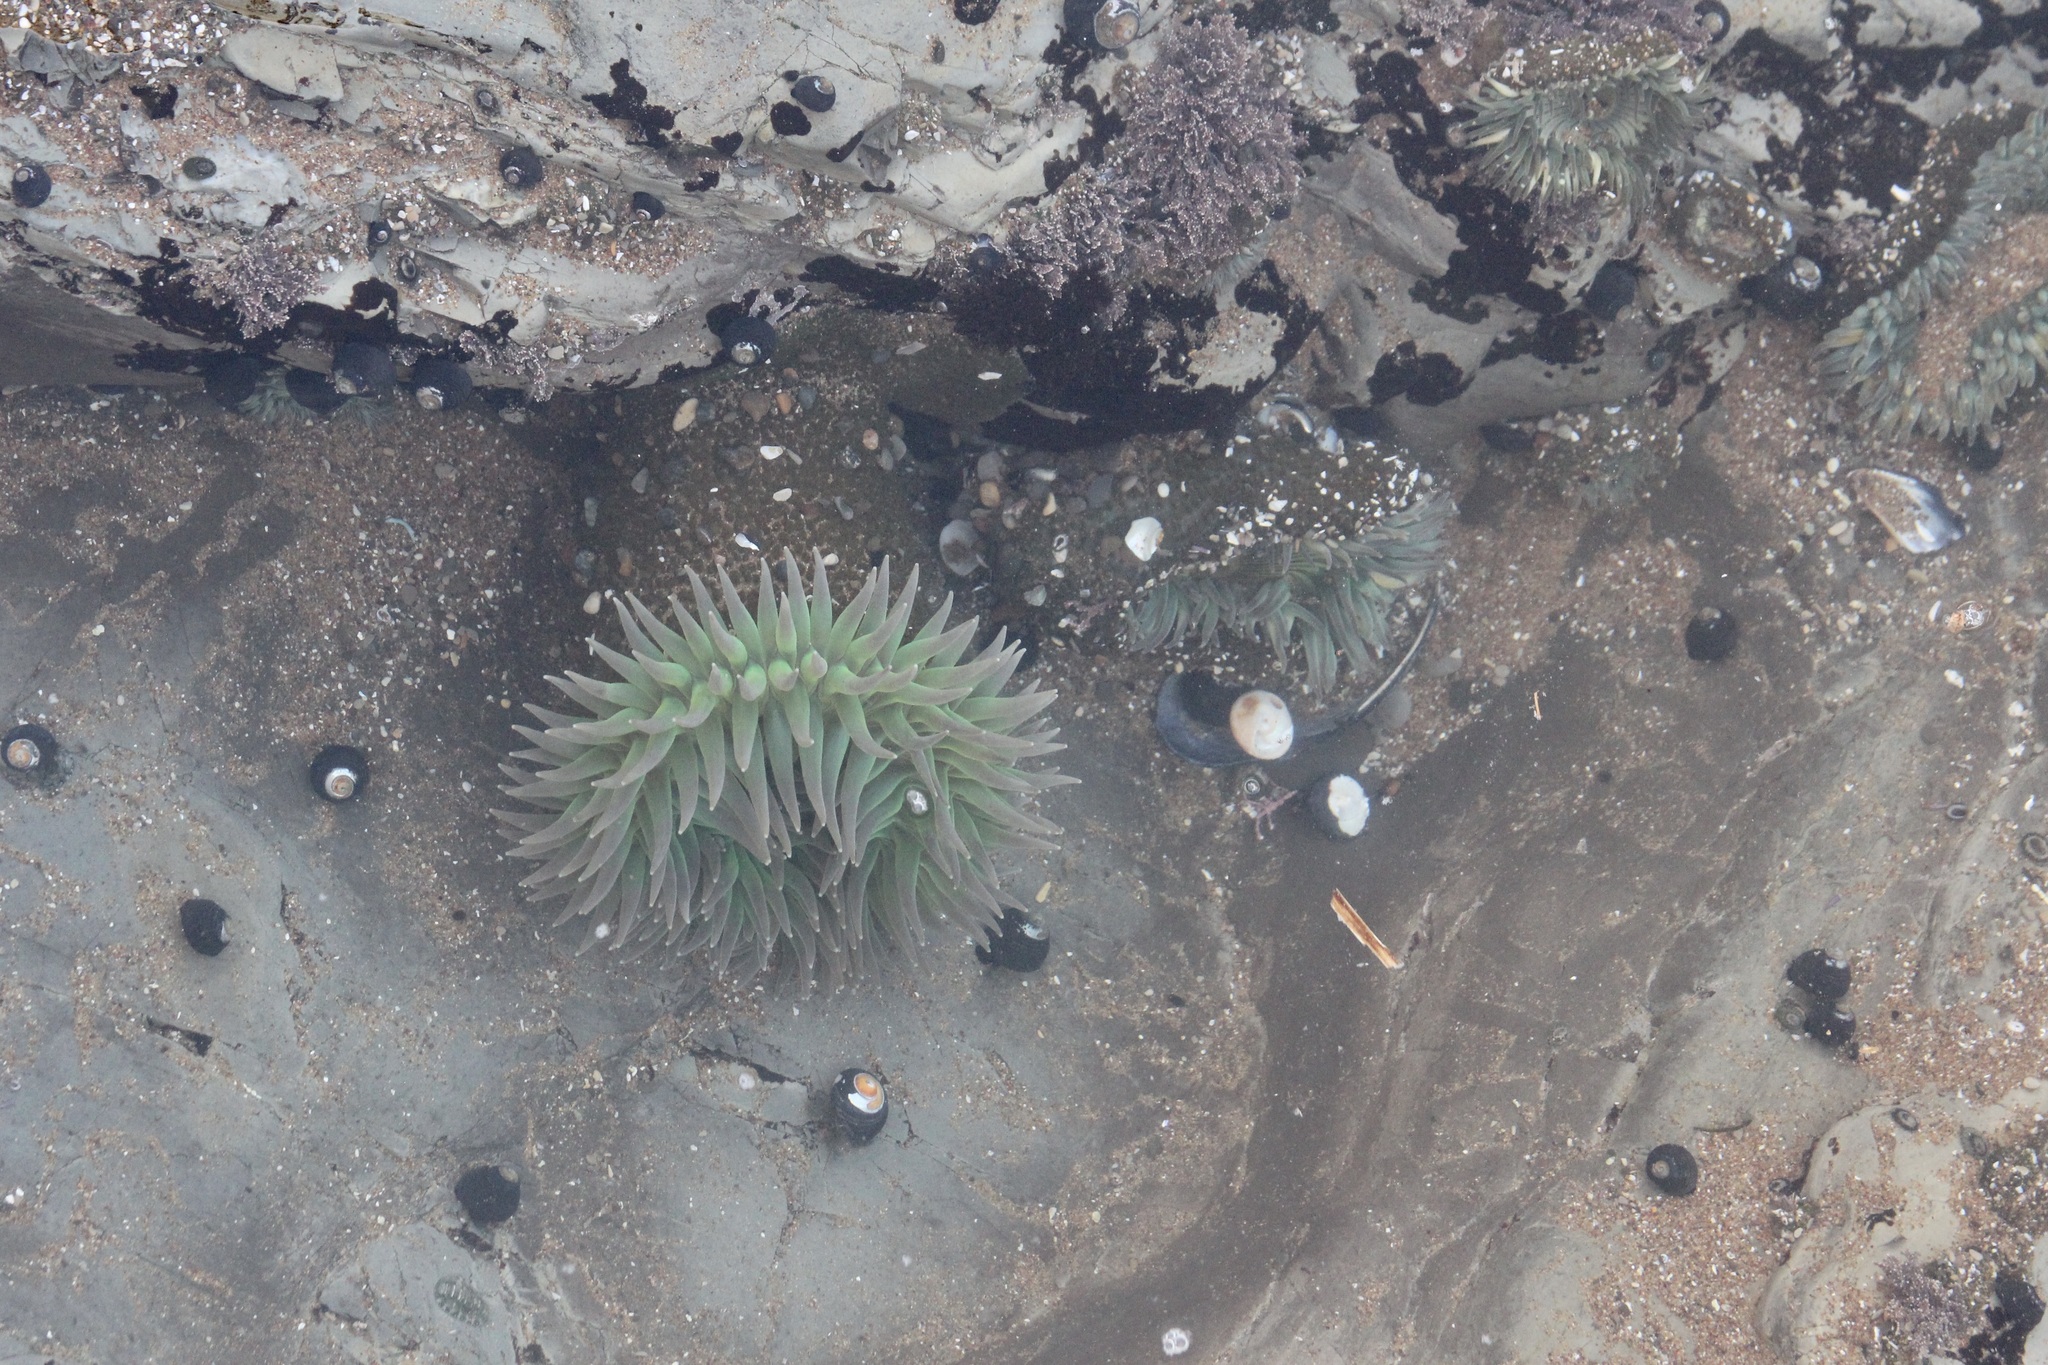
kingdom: Animalia
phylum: Cnidaria
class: Anthozoa
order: Actiniaria
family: Actiniidae
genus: Anthopleura
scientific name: Anthopleura xanthogrammica
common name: Giant green anemone
